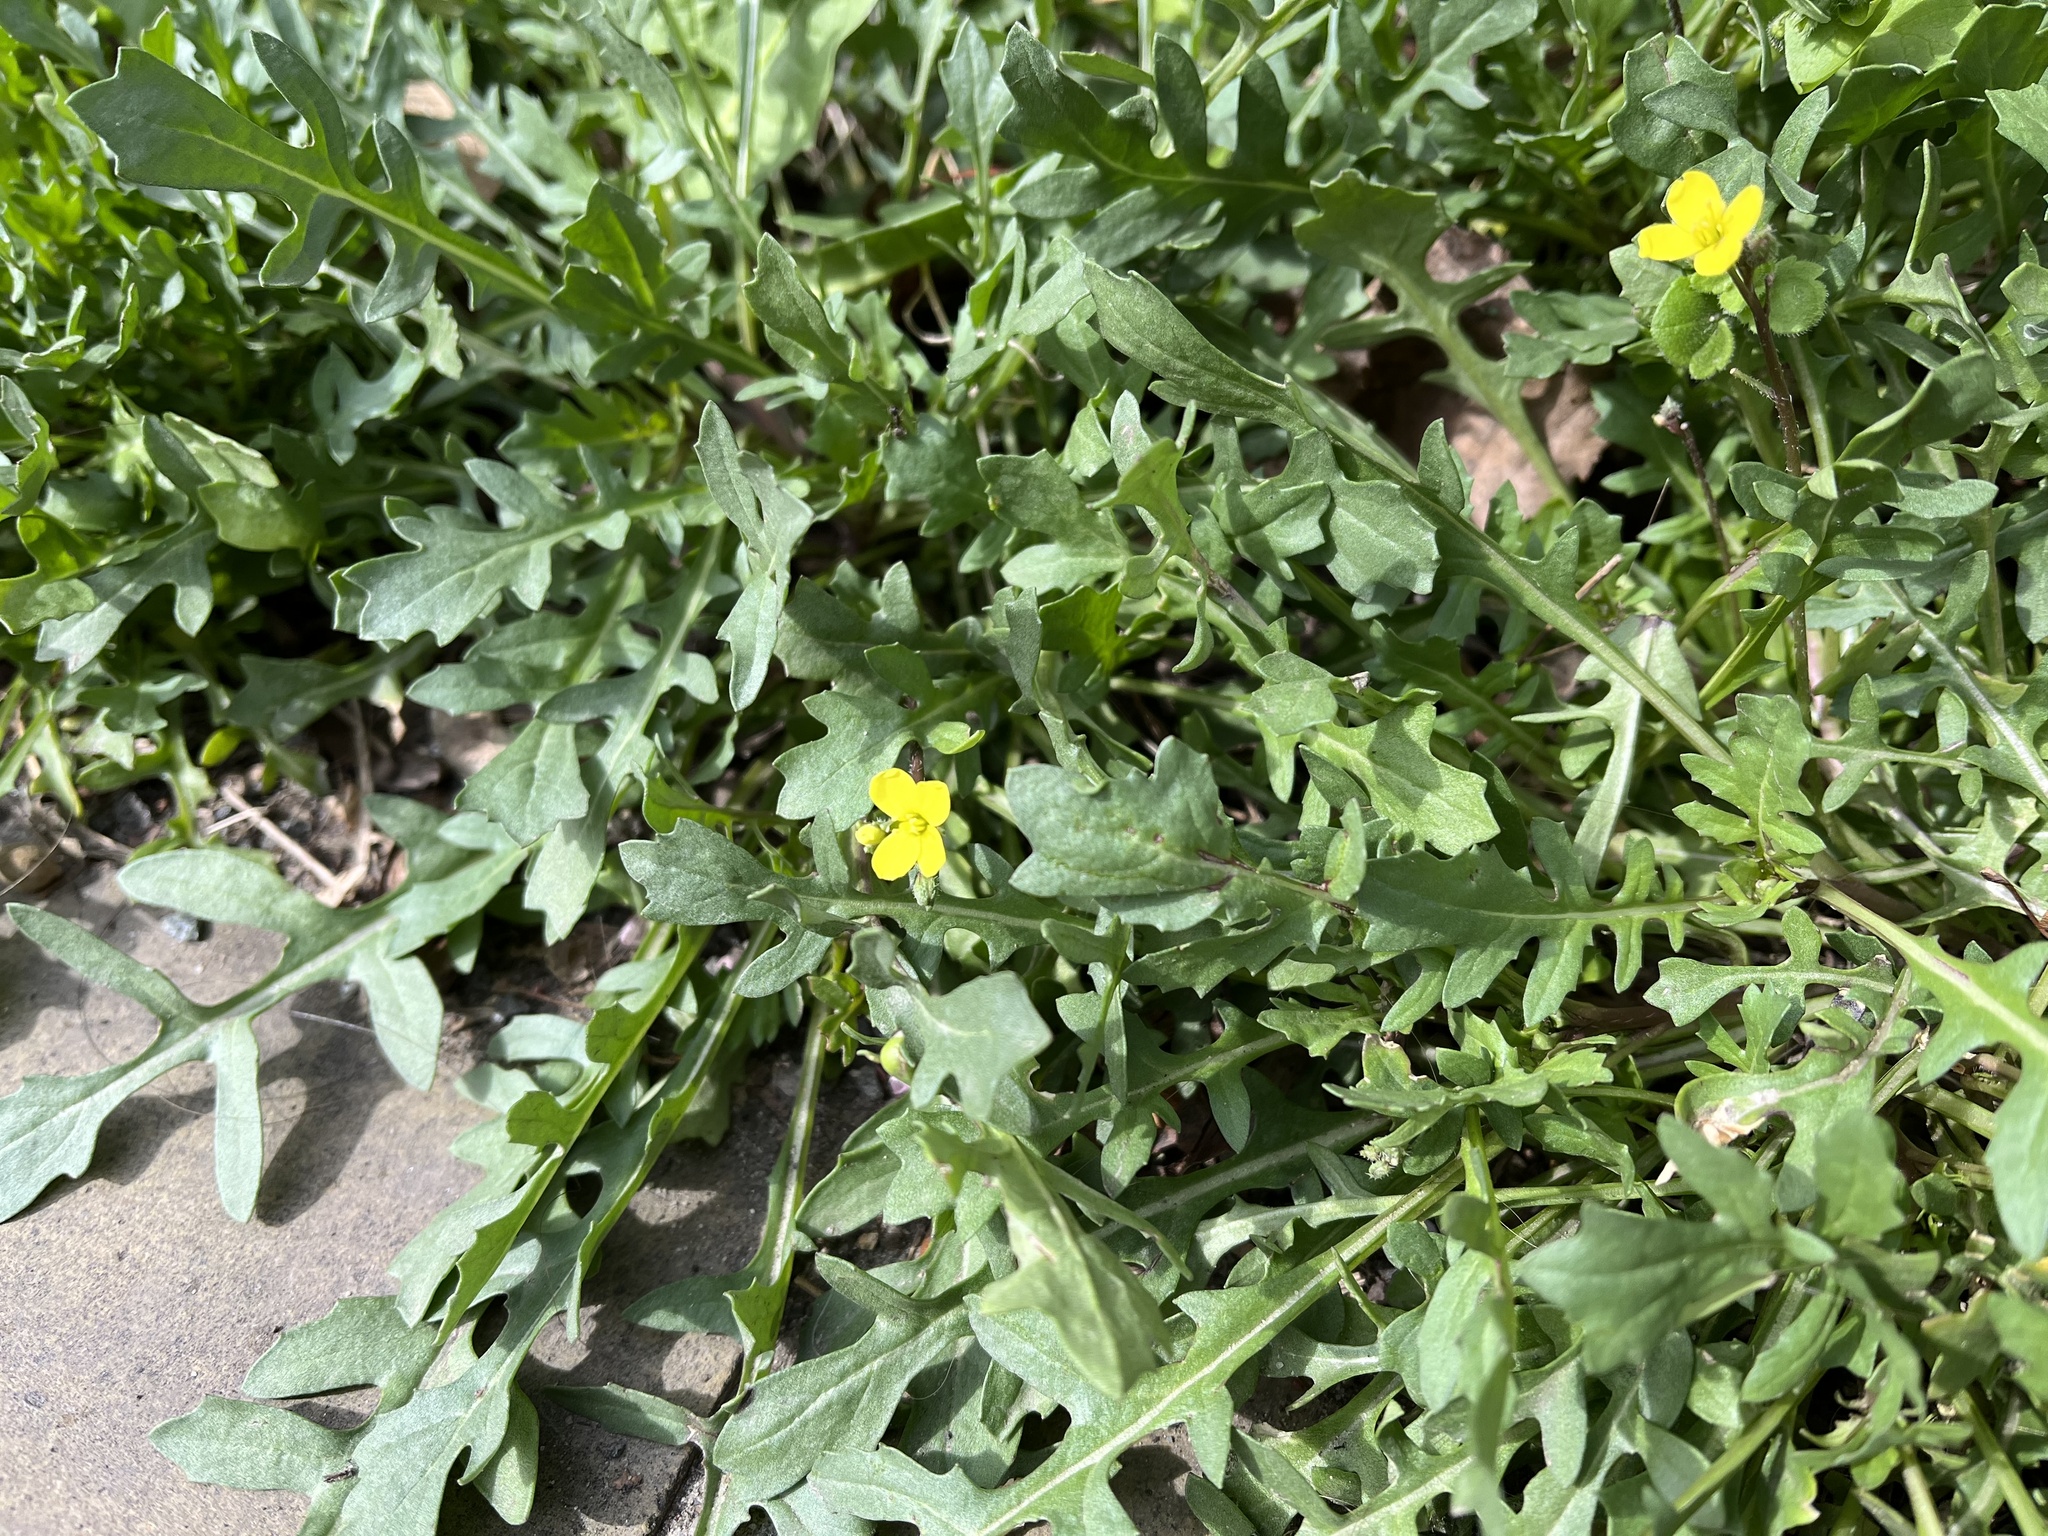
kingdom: Plantae
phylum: Tracheophyta
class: Magnoliopsida
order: Brassicales
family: Brassicaceae
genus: Diplotaxis
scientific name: Diplotaxis tenuifolia
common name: Perennial wall-rocket
